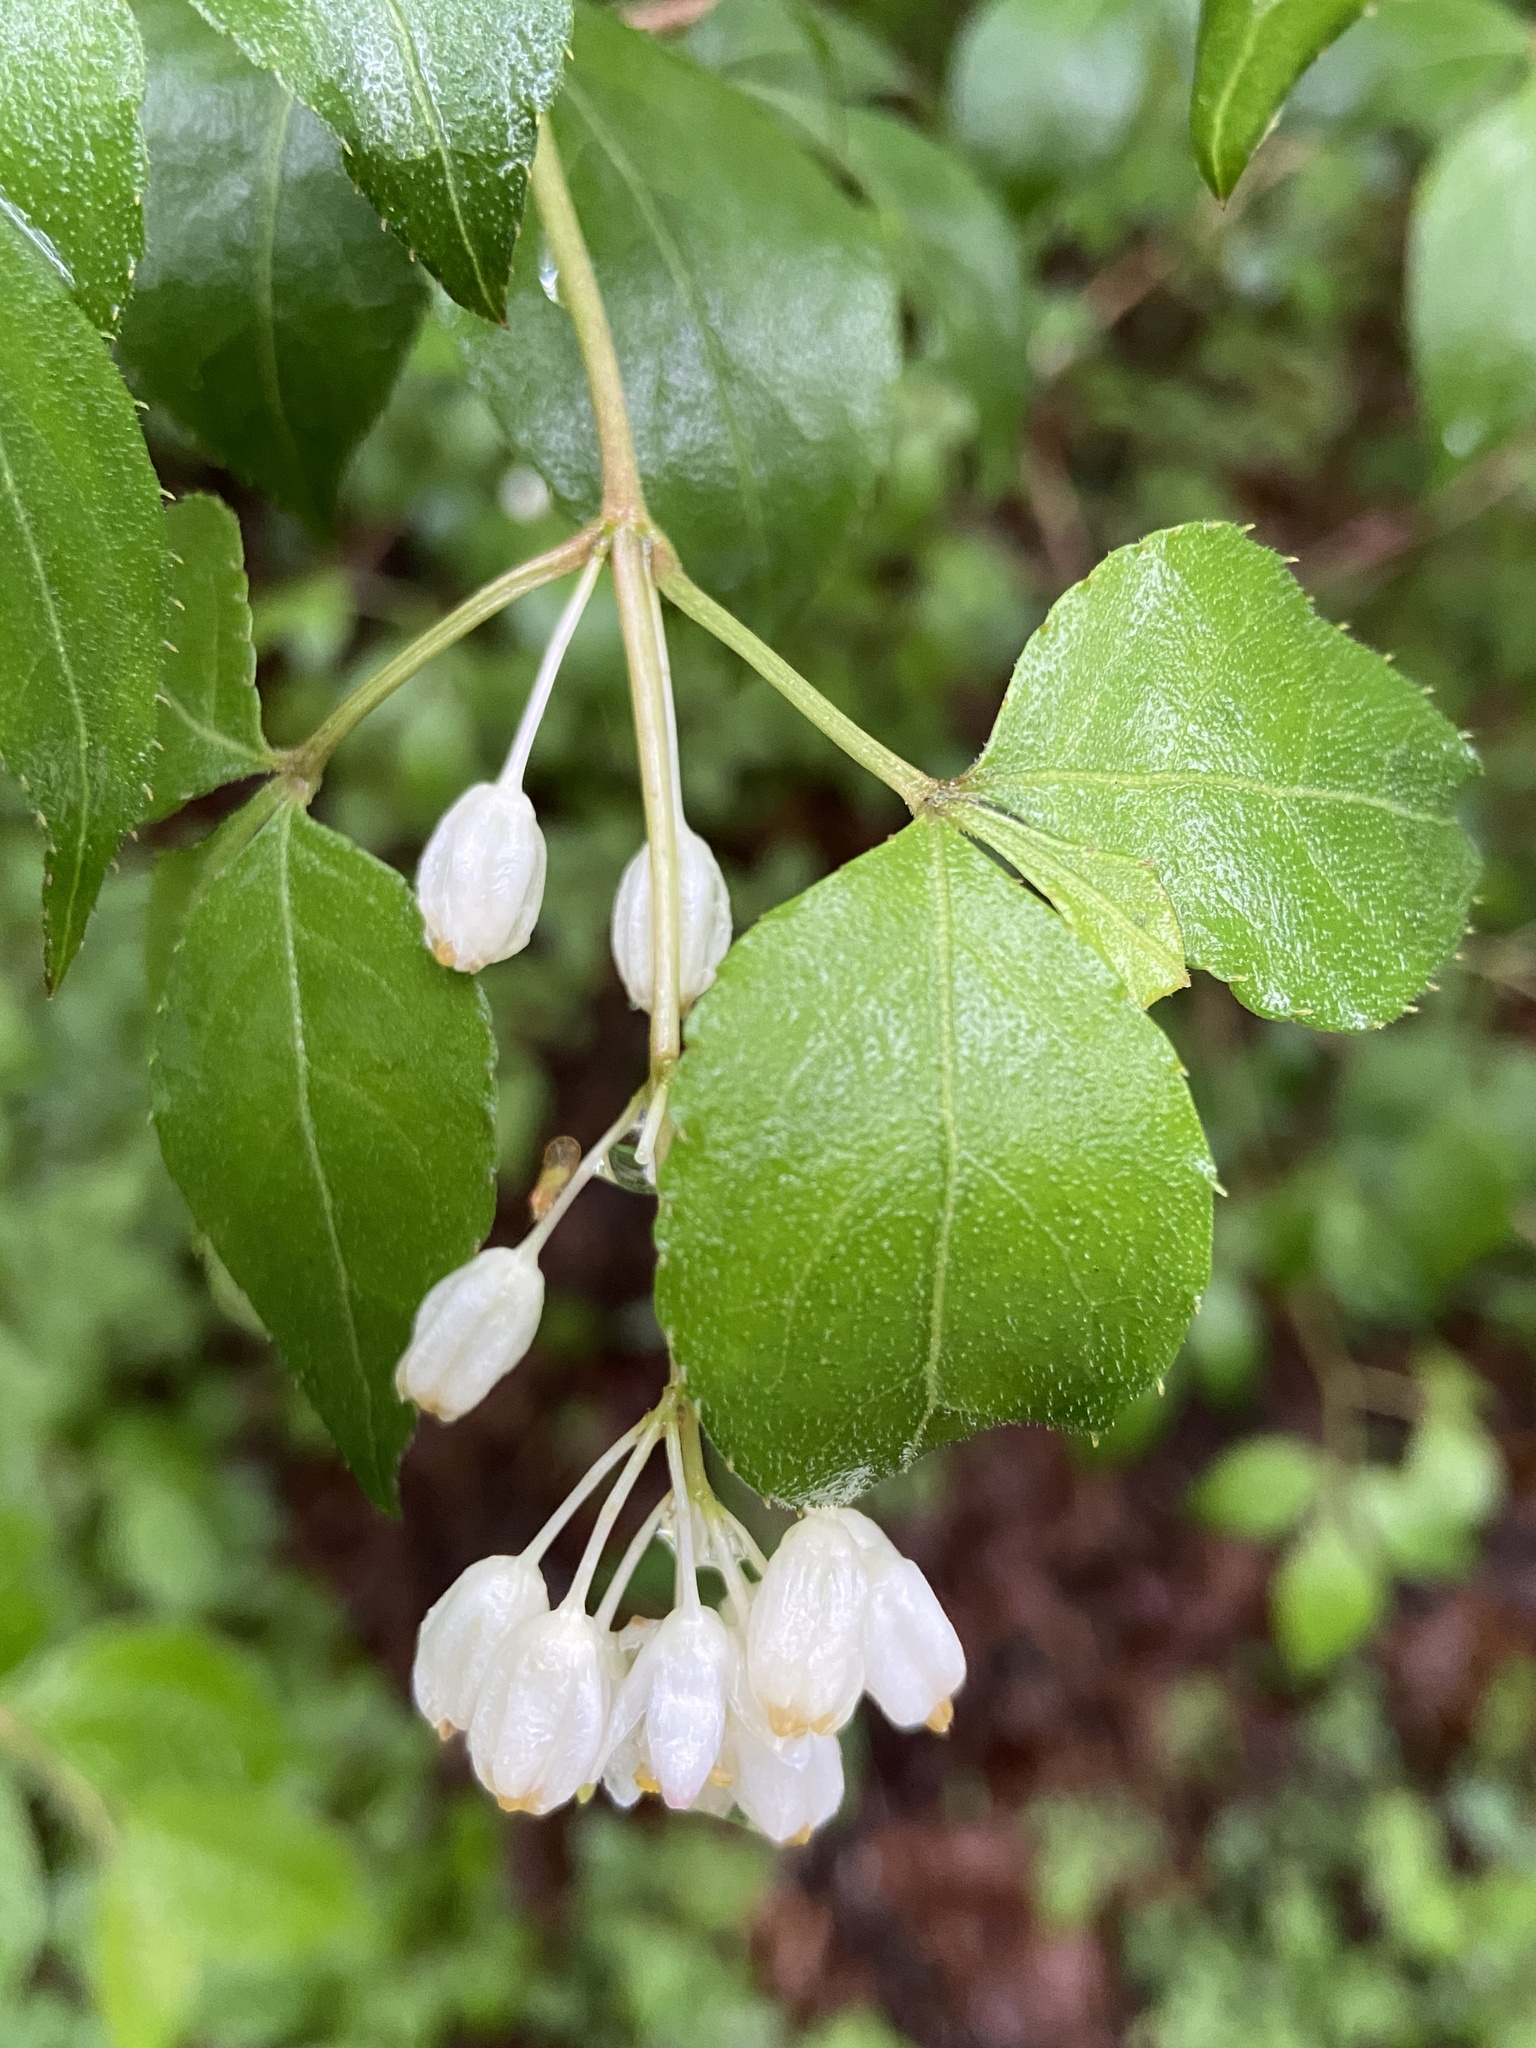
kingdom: Plantae
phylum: Tracheophyta
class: Magnoliopsida
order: Crossosomatales
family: Staphyleaceae
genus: Staphylea
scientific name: Staphylea bumalda
